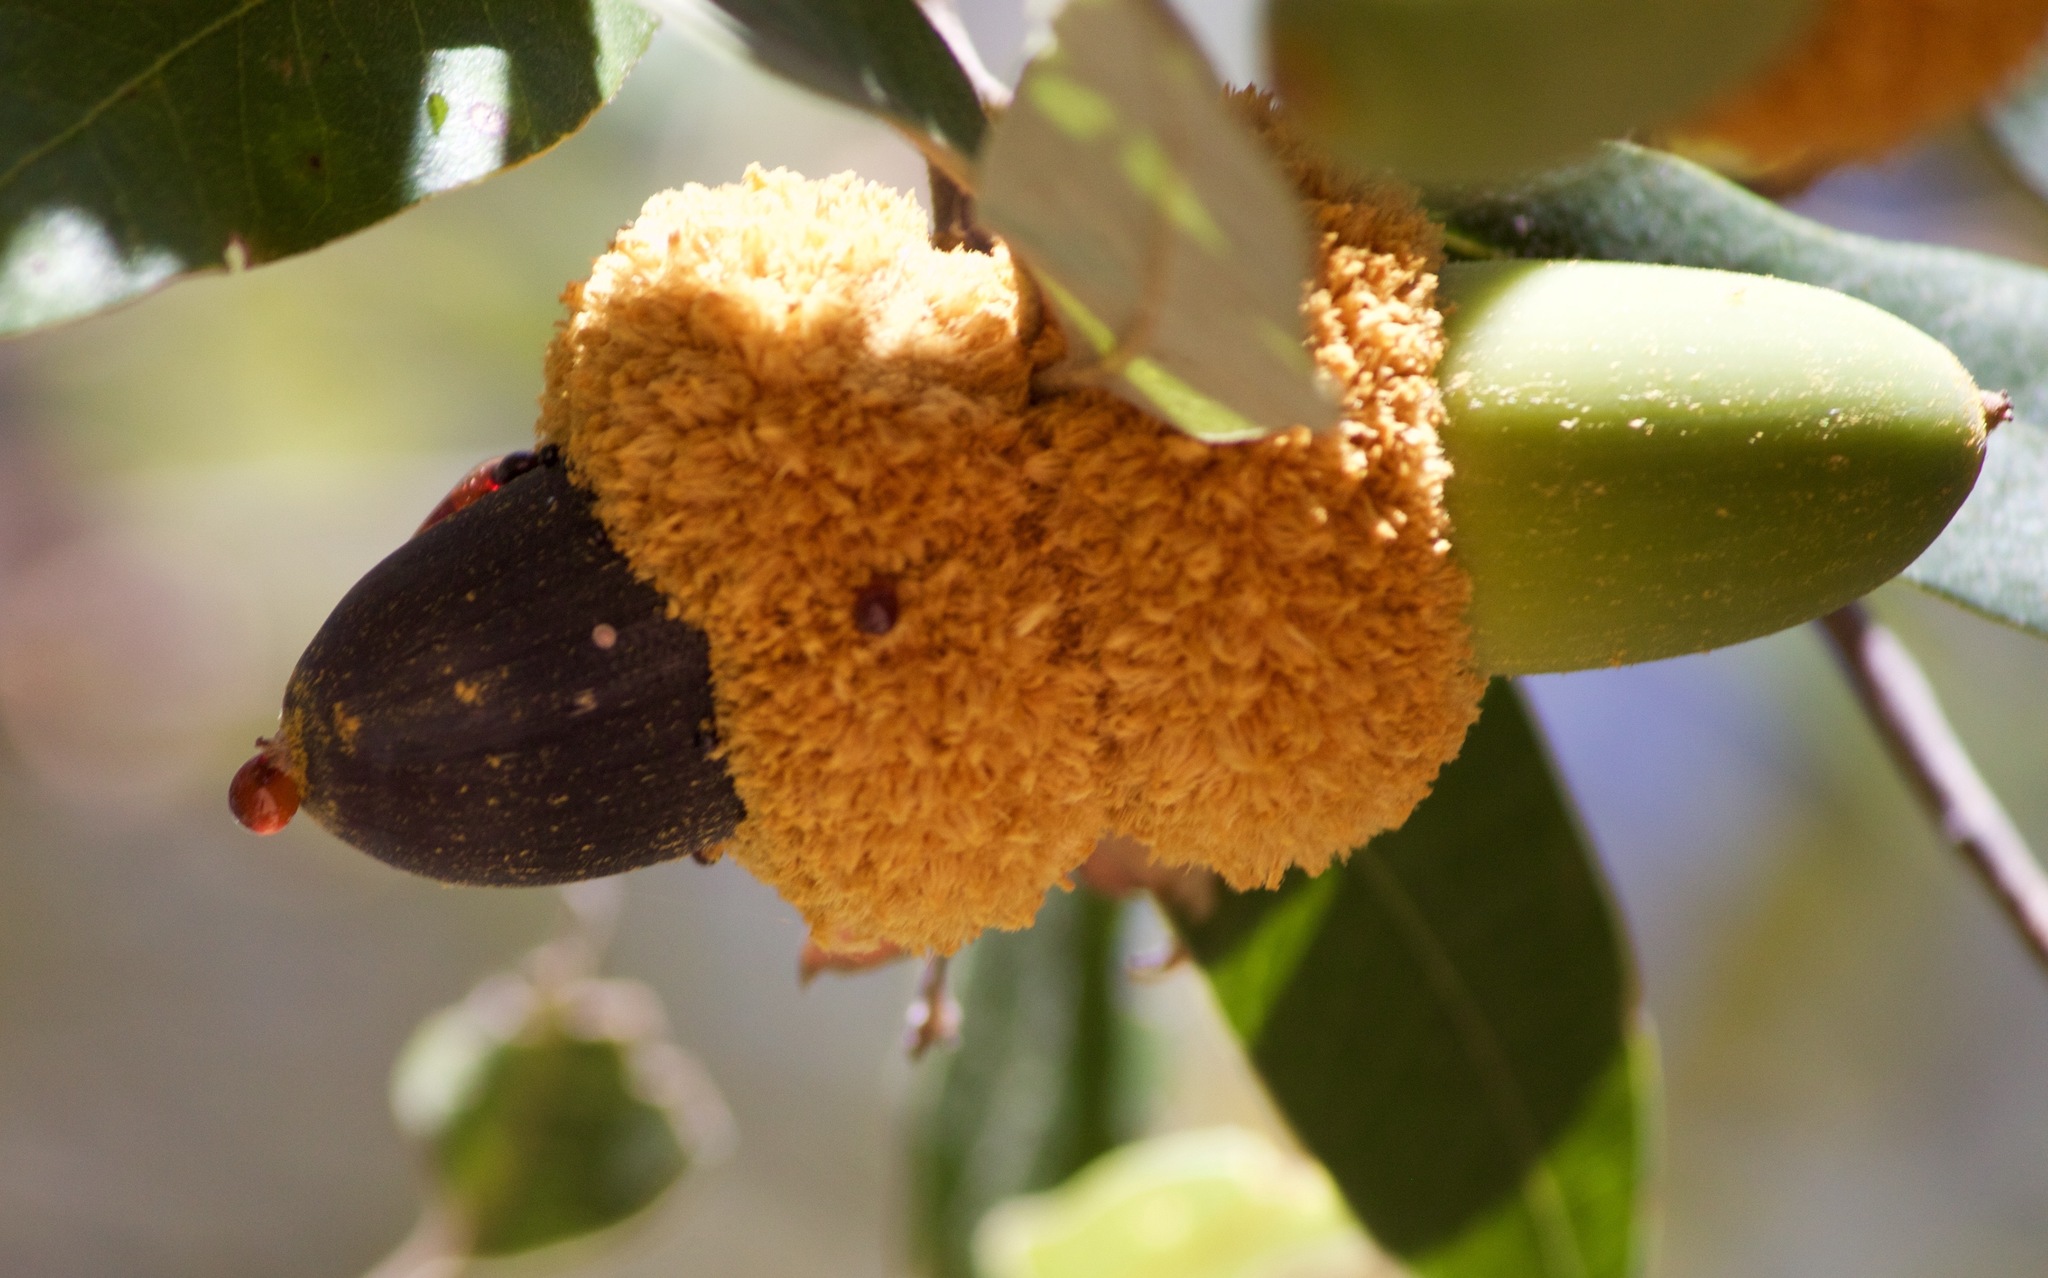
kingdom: Plantae
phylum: Tracheophyta
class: Magnoliopsida
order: Fagales
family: Fagaceae
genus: Quercus
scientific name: Quercus chrysolepis
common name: Canyon live oak
